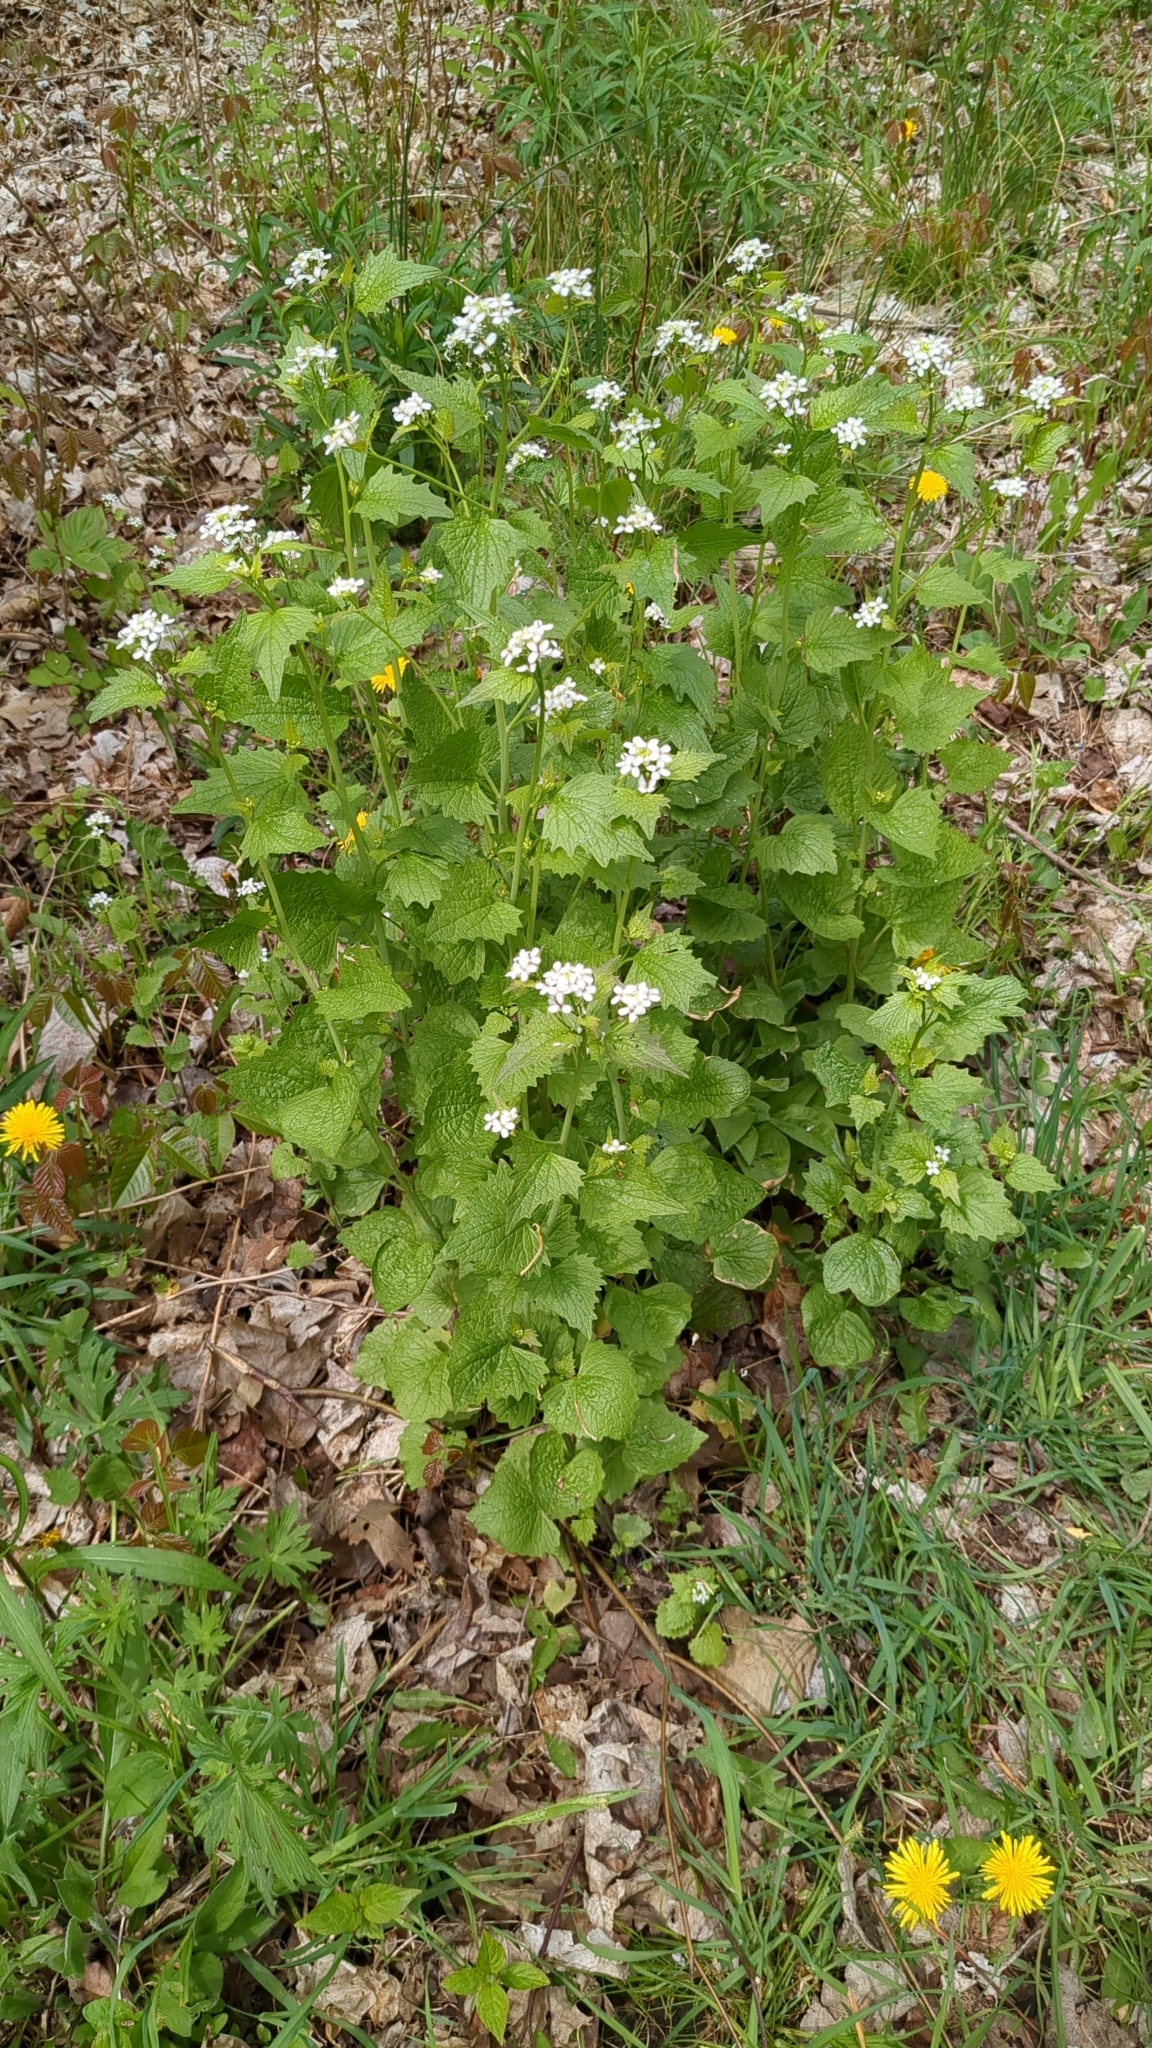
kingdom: Plantae
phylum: Tracheophyta
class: Magnoliopsida
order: Brassicales
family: Brassicaceae
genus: Alliaria
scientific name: Alliaria petiolata
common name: Garlic mustard
